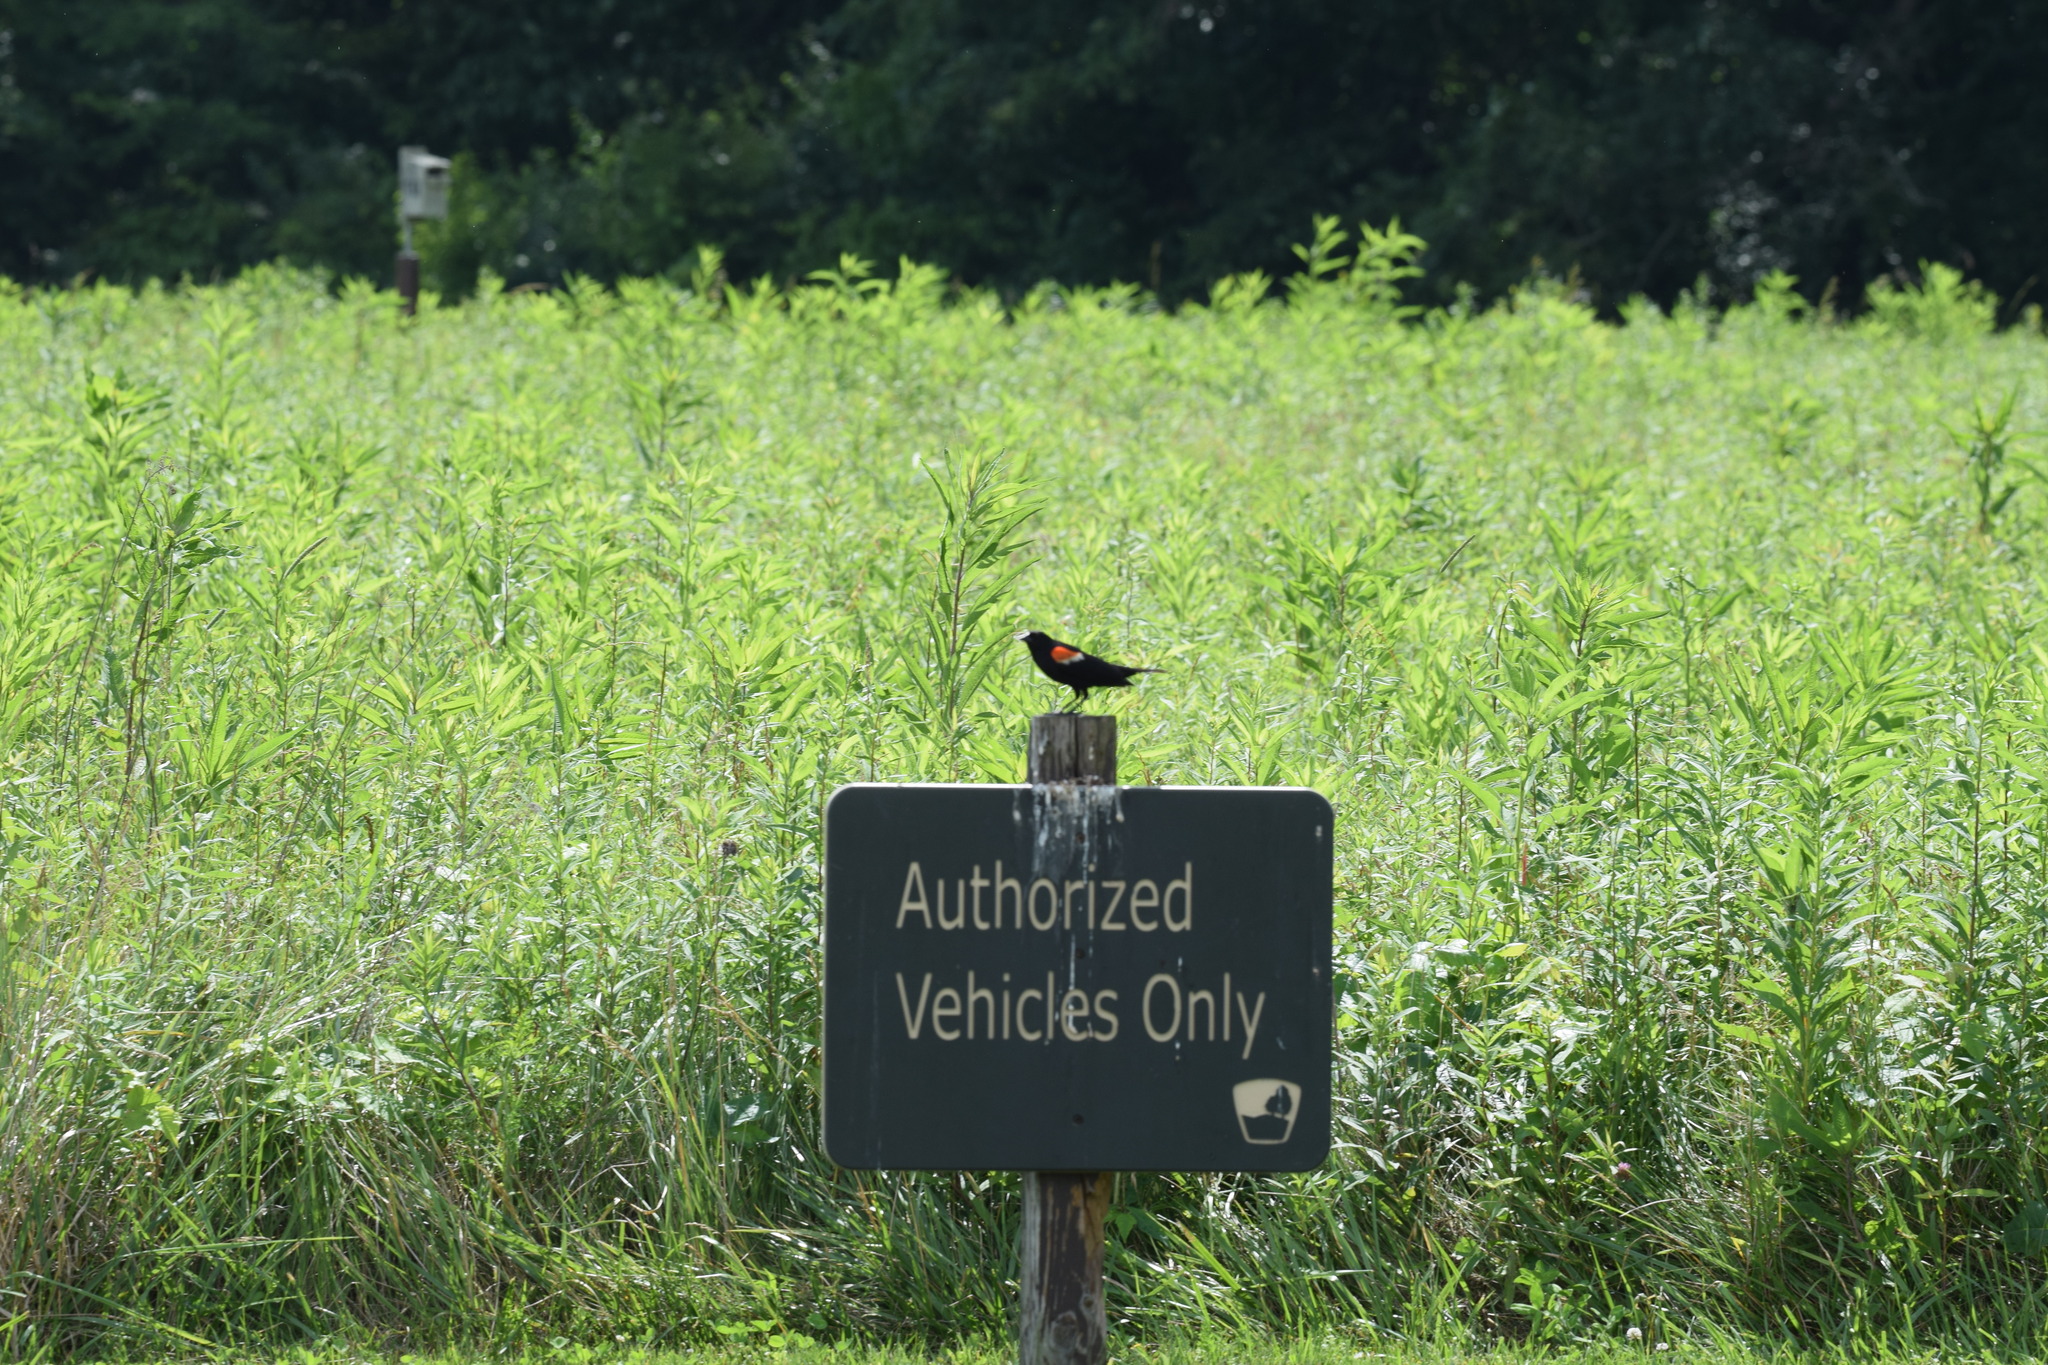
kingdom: Animalia
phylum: Chordata
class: Aves
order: Passeriformes
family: Icteridae
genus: Agelaius
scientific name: Agelaius phoeniceus
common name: Red-winged blackbird
